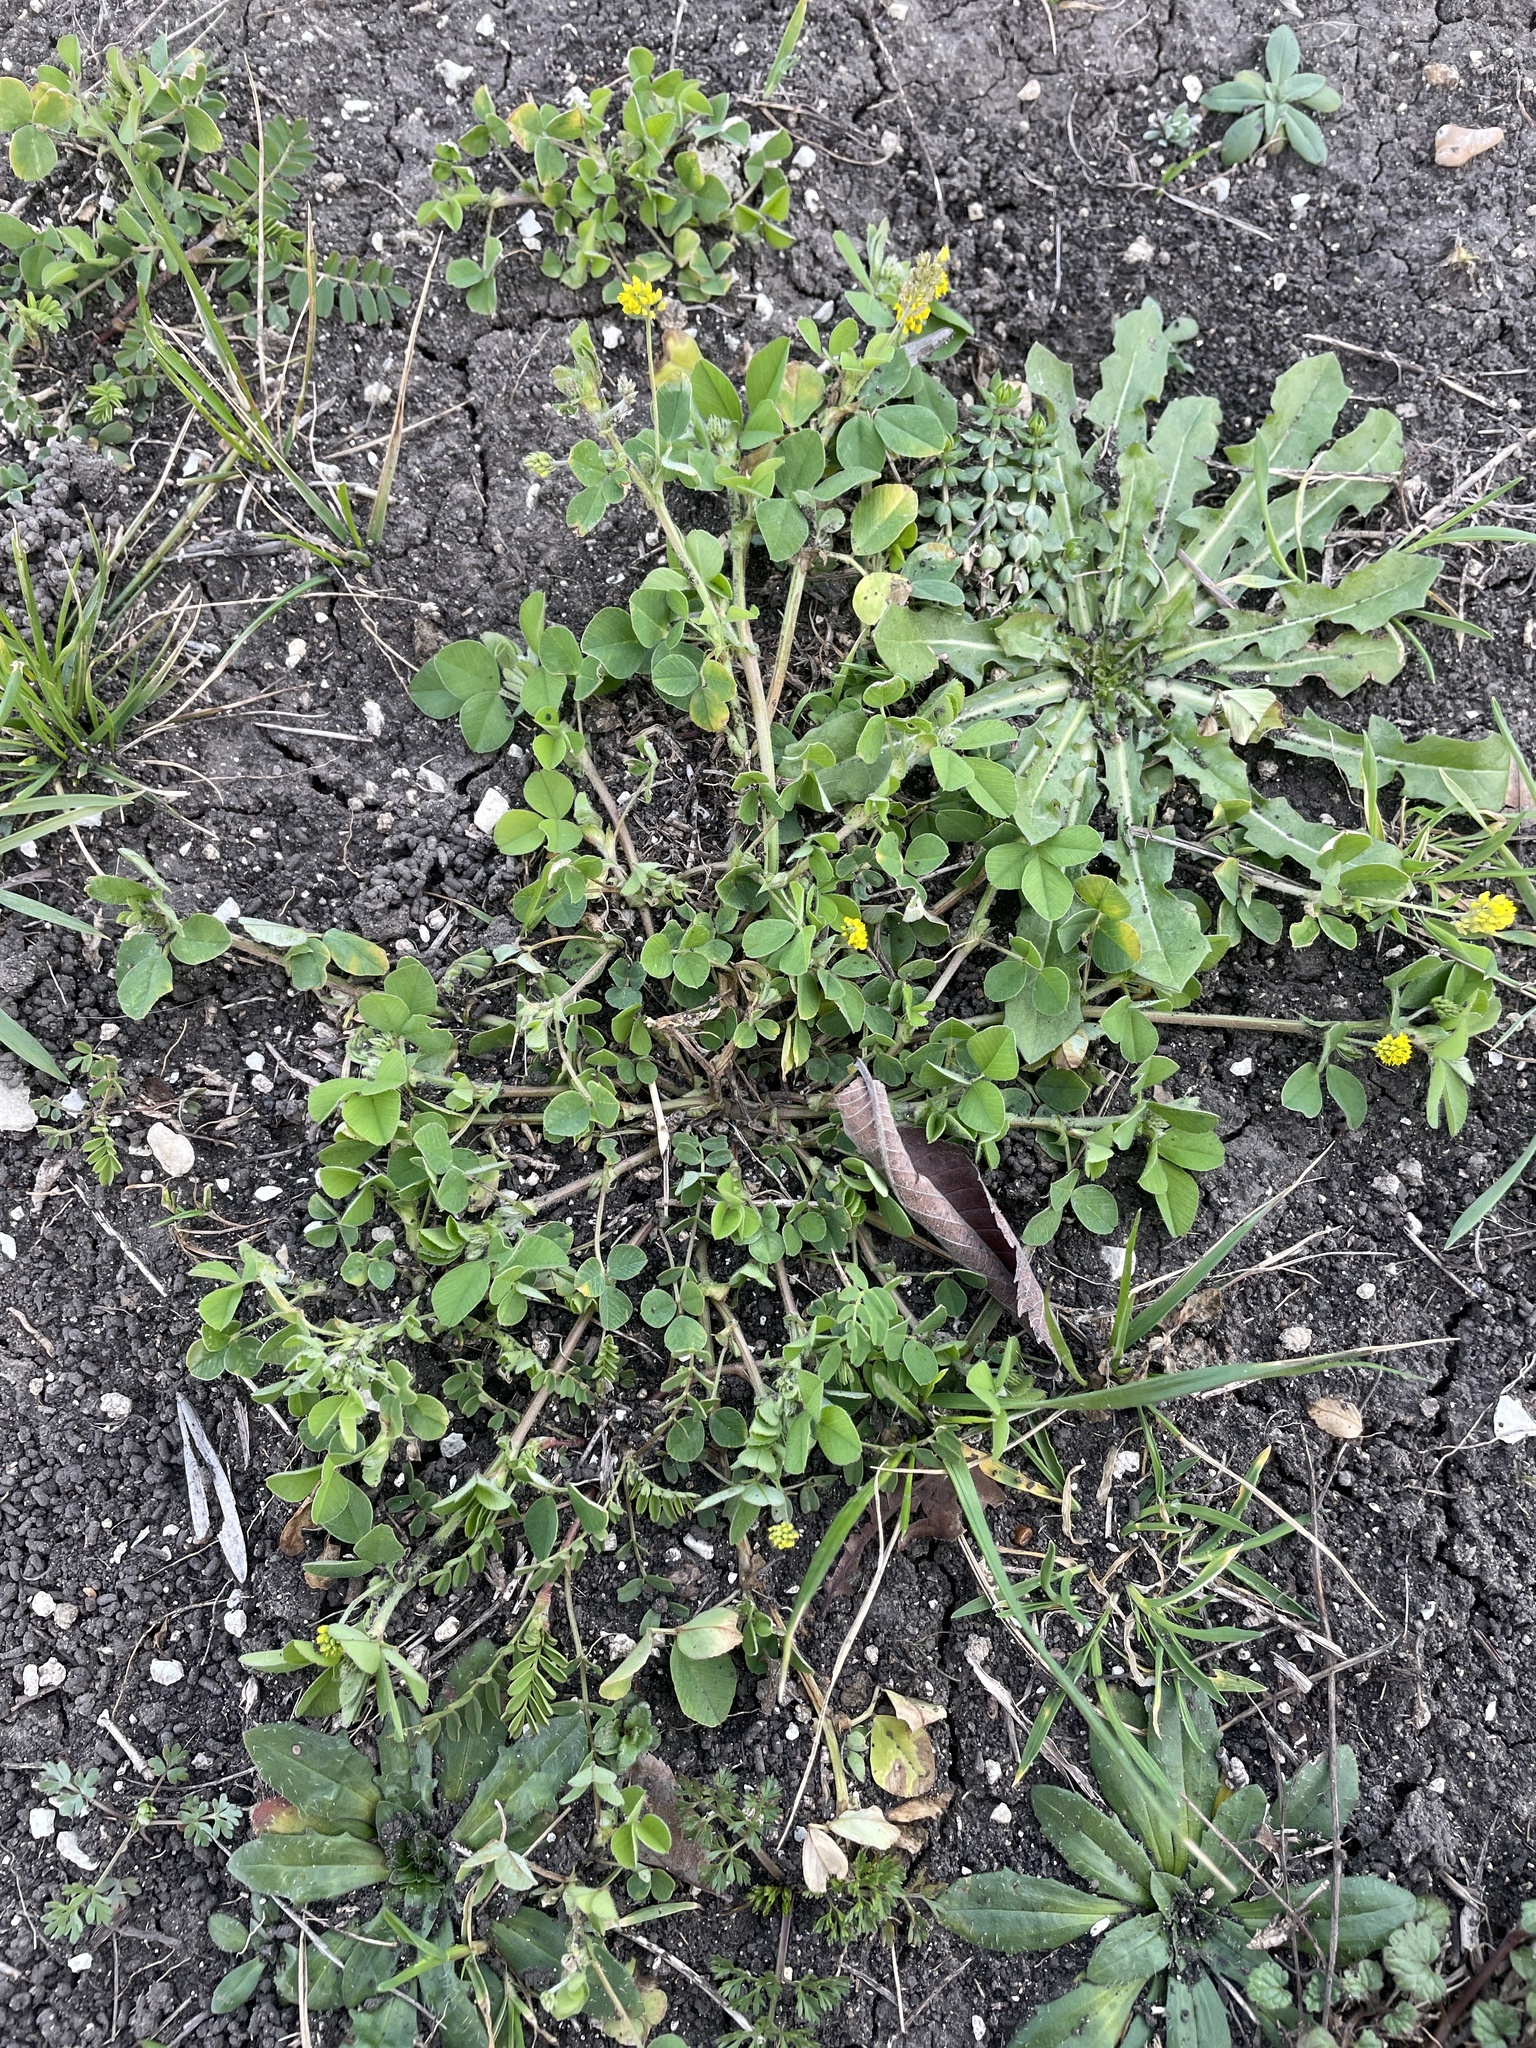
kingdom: Plantae
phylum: Tracheophyta
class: Magnoliopsida
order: Fabales
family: Fabaceae
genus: Medicago
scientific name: Medicago lupulina
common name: Black medick
